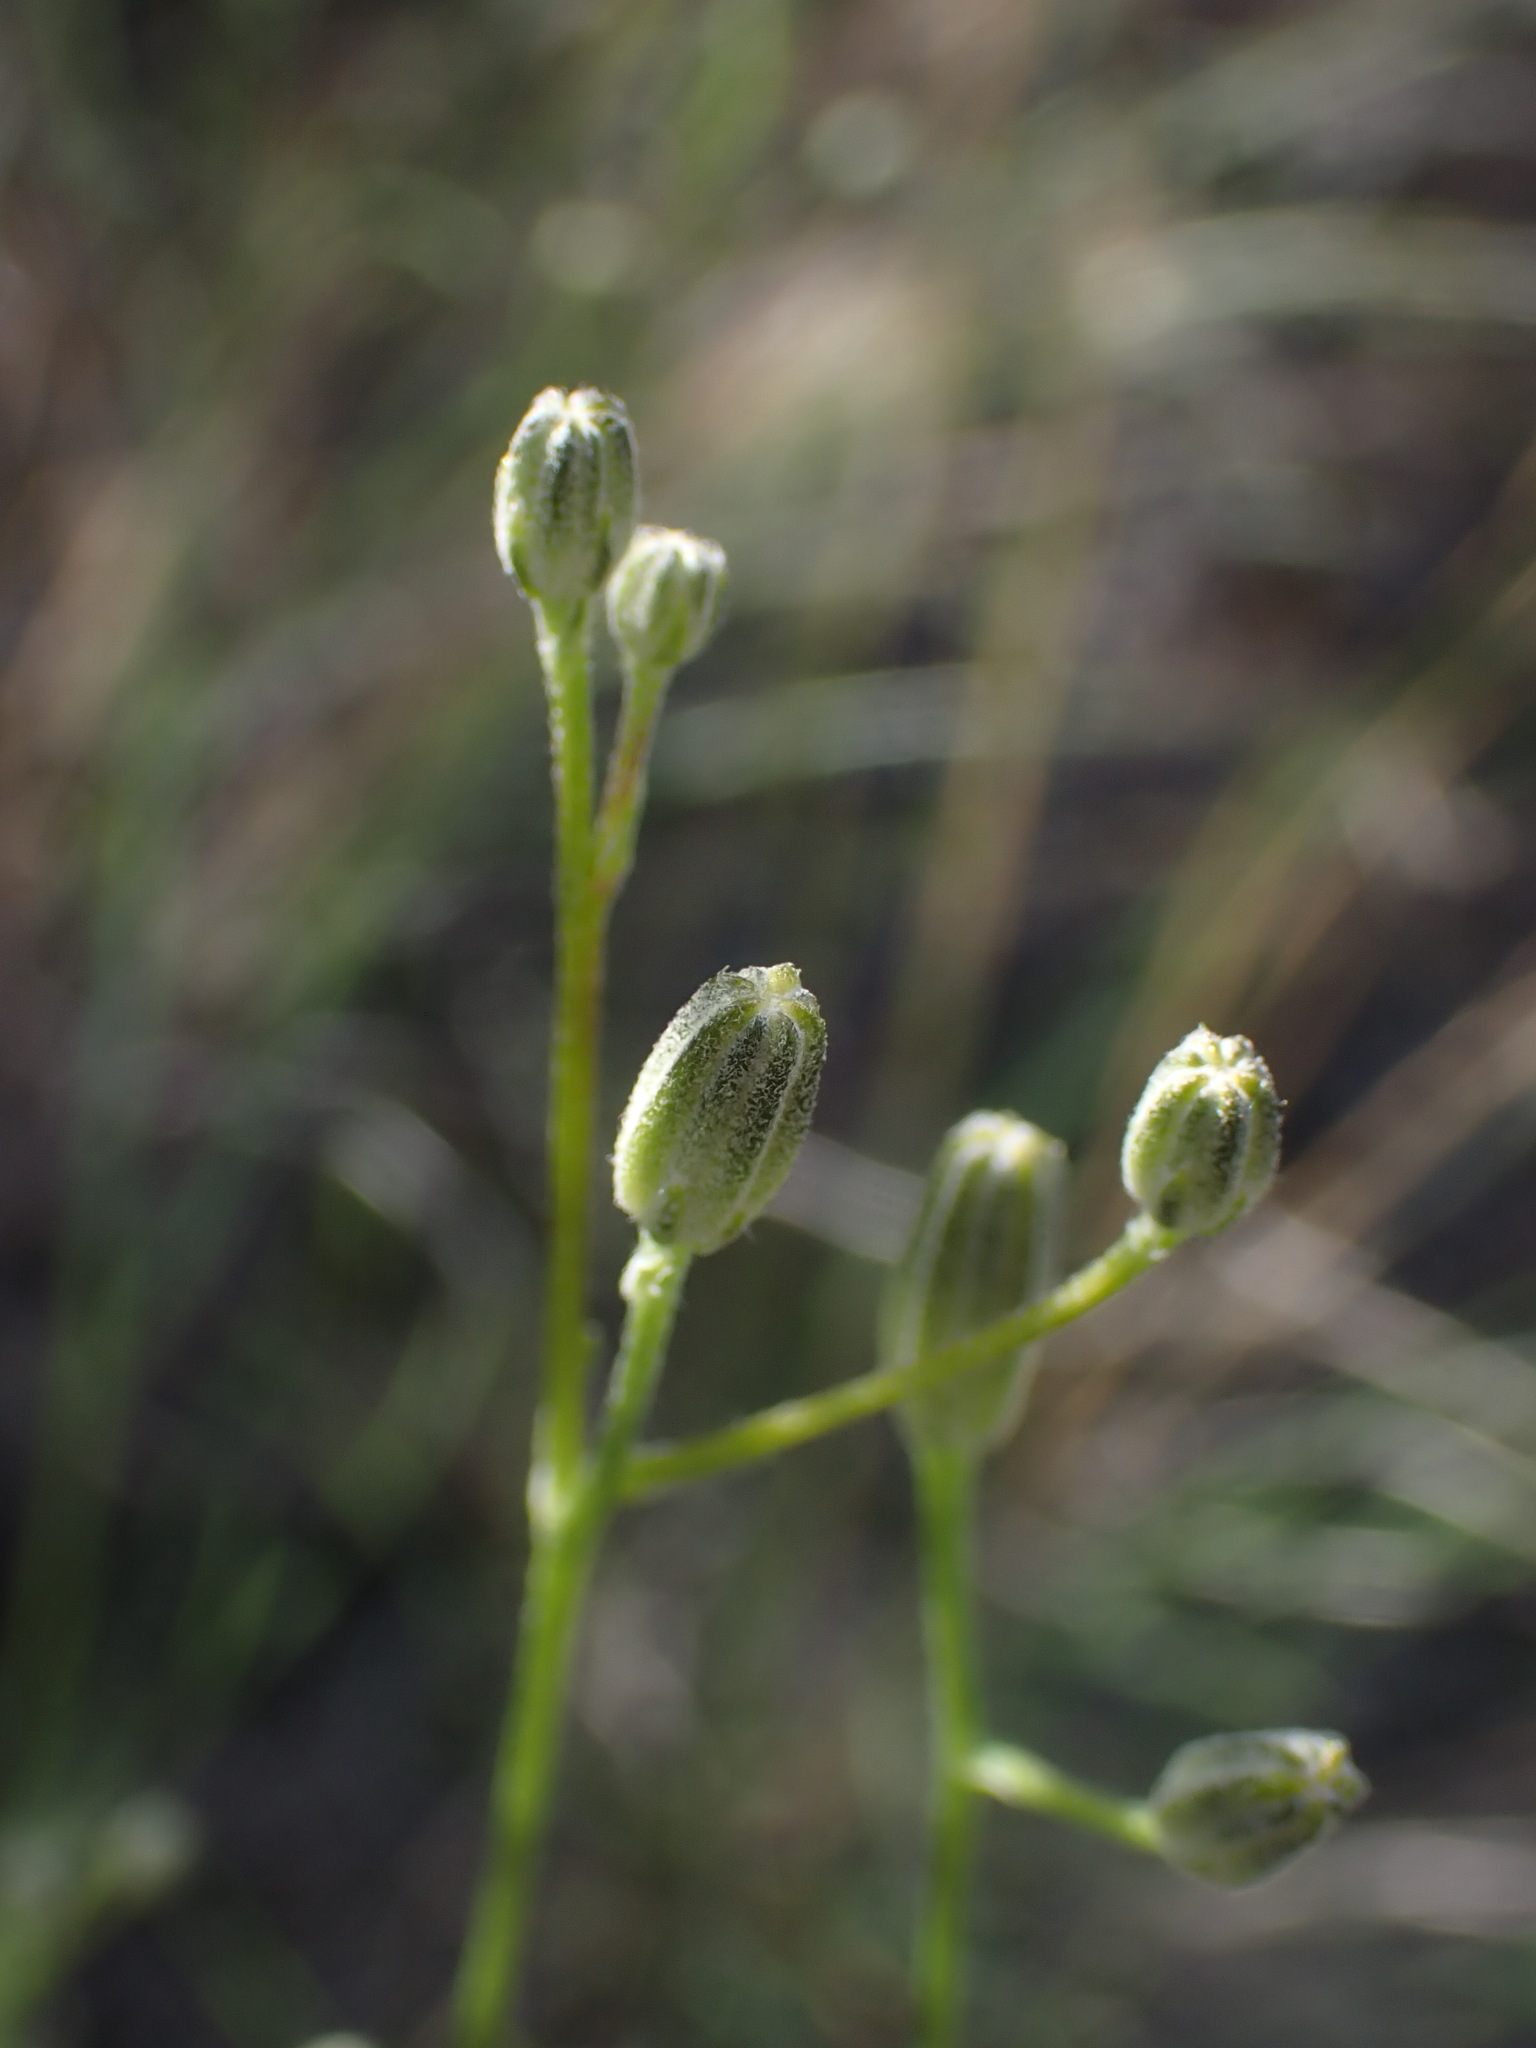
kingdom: Plantae
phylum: Tracheophyta
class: Magnoliopsida
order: Asterales
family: Asteraceae
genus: Crepis
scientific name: Crepis atribarba
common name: Dark hawk's-beard
